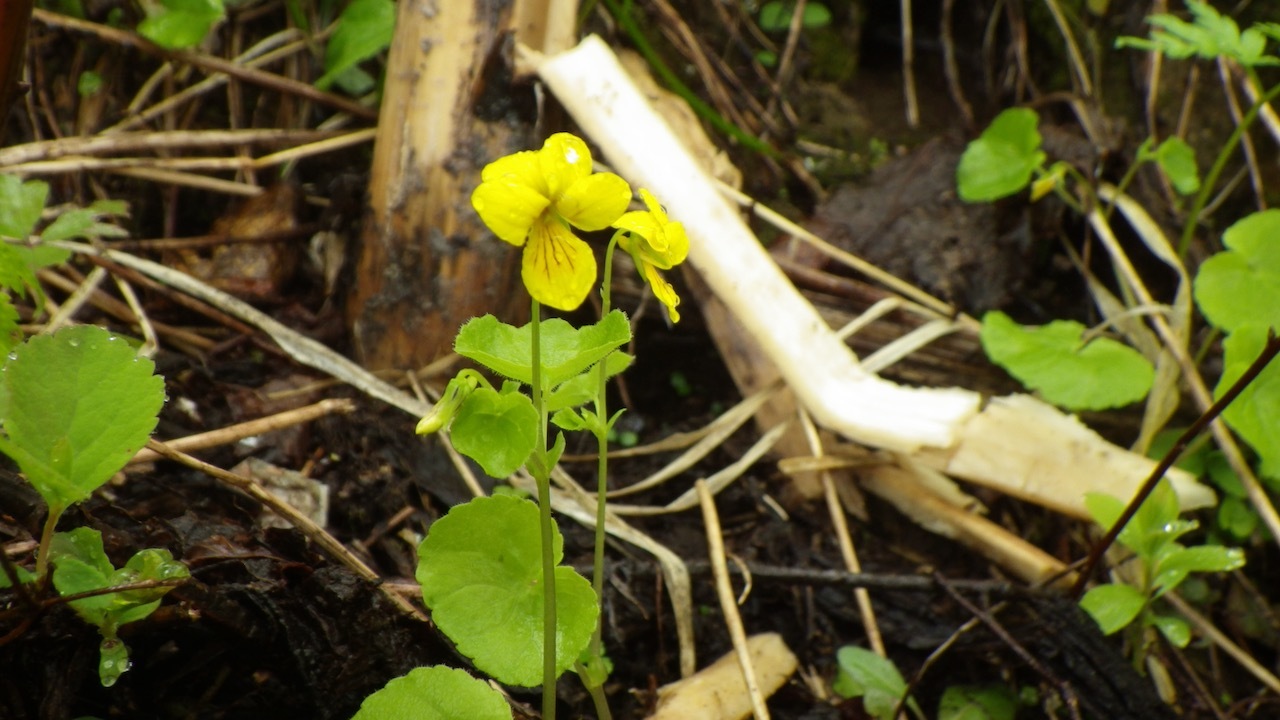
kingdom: Plantae
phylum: Tracheophyta
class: Magnoliopsida
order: Malpighiales
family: Violaceae
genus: Viola
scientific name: Viola biflora
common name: Alpine yellow violet
